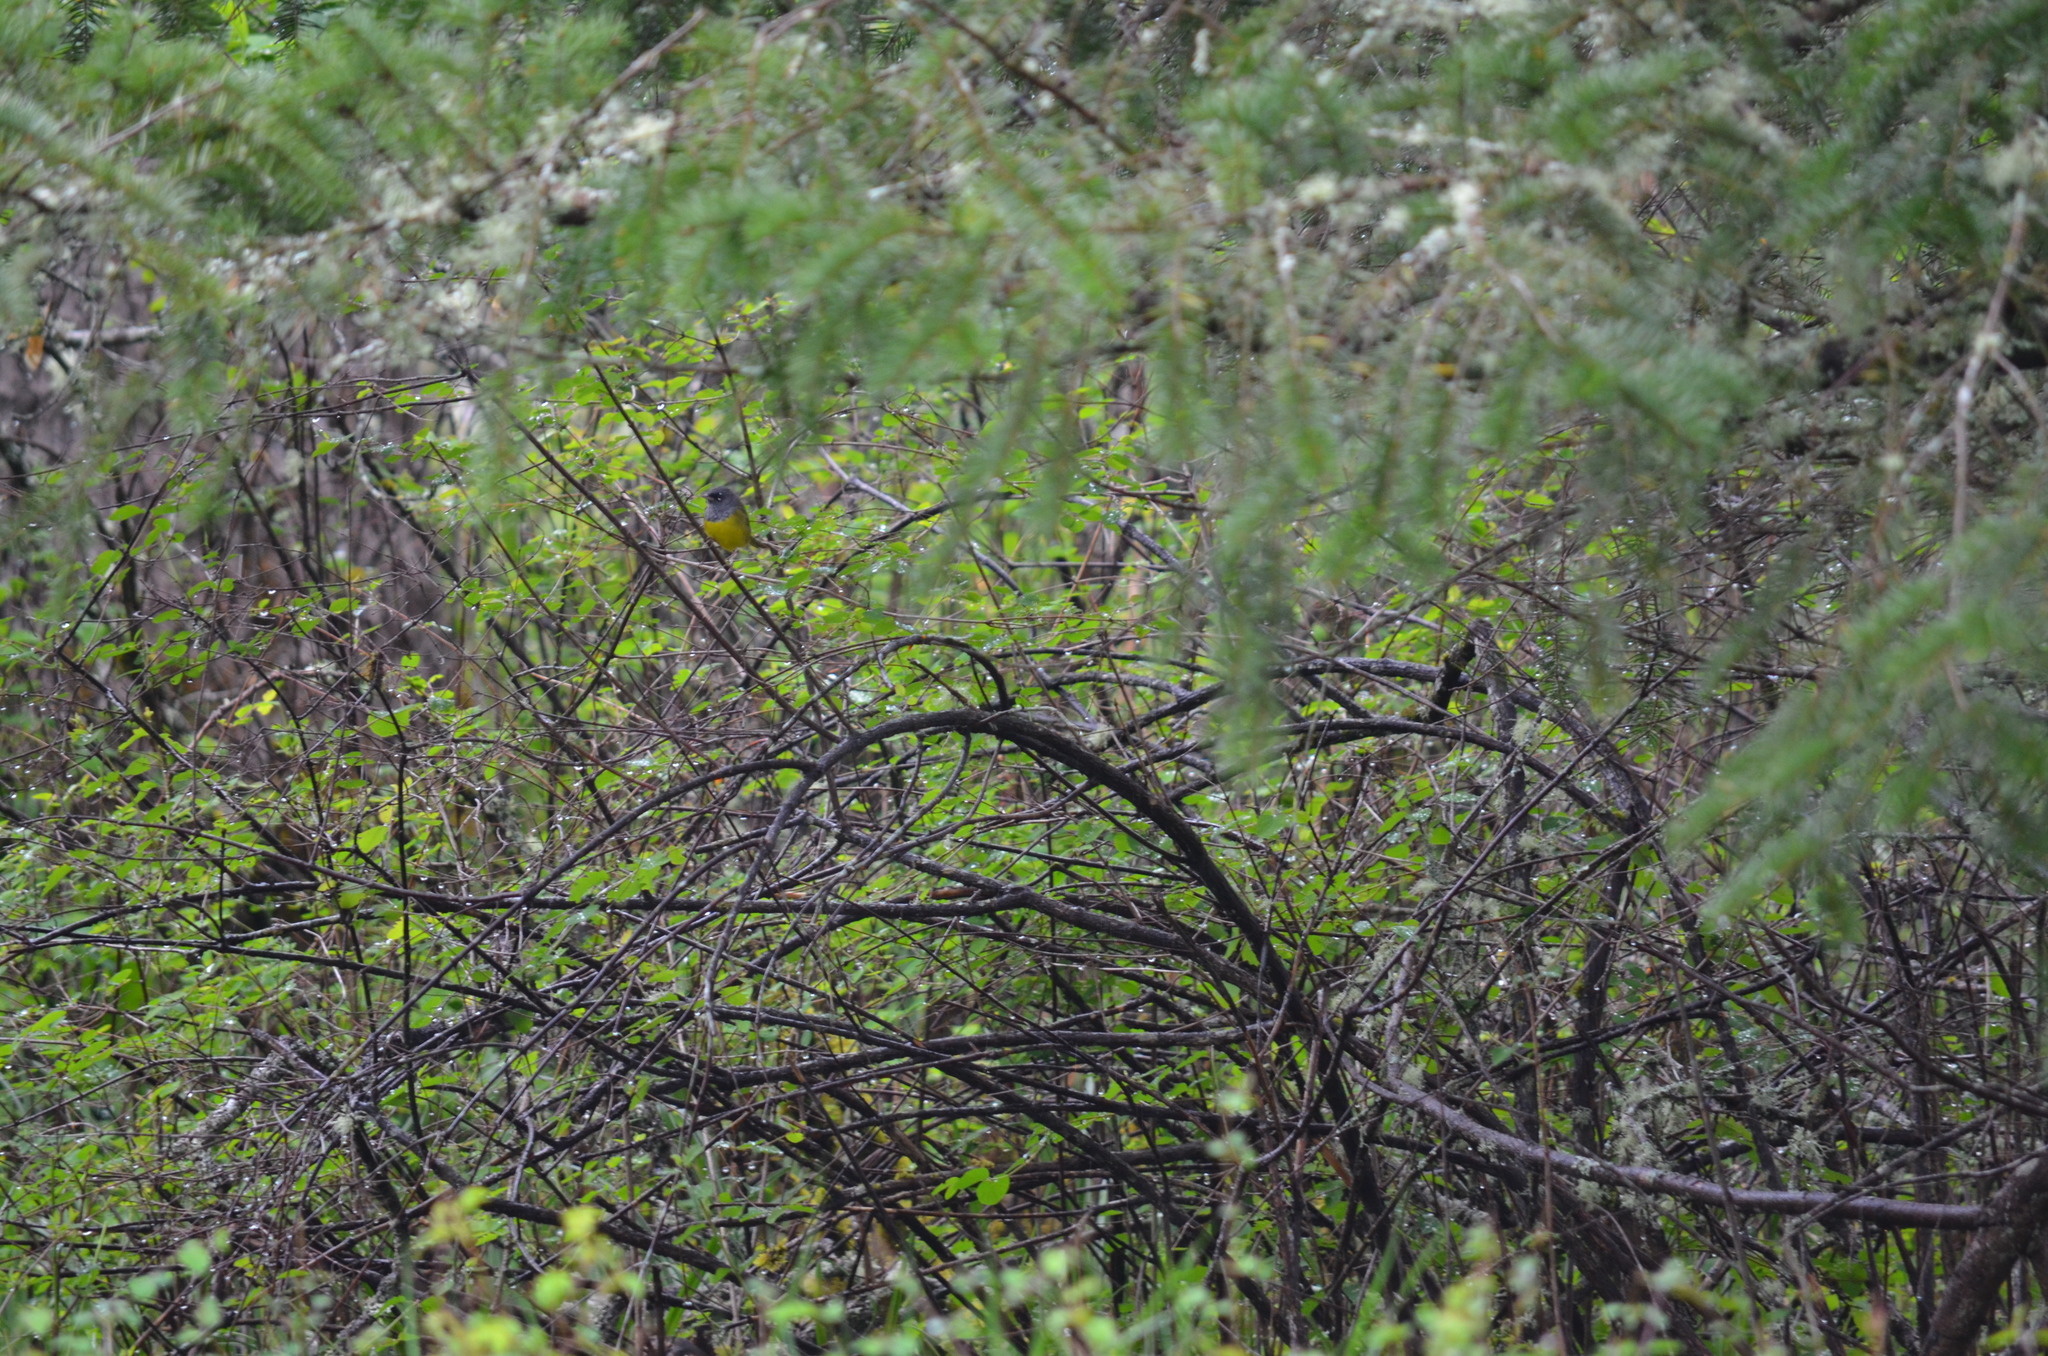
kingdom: Animalia
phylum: Chordata
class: Aves
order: Passeriformes
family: Parulidae
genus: Geothlypis
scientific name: Geothlypis tolmiei
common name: Macgillivray's warbler
